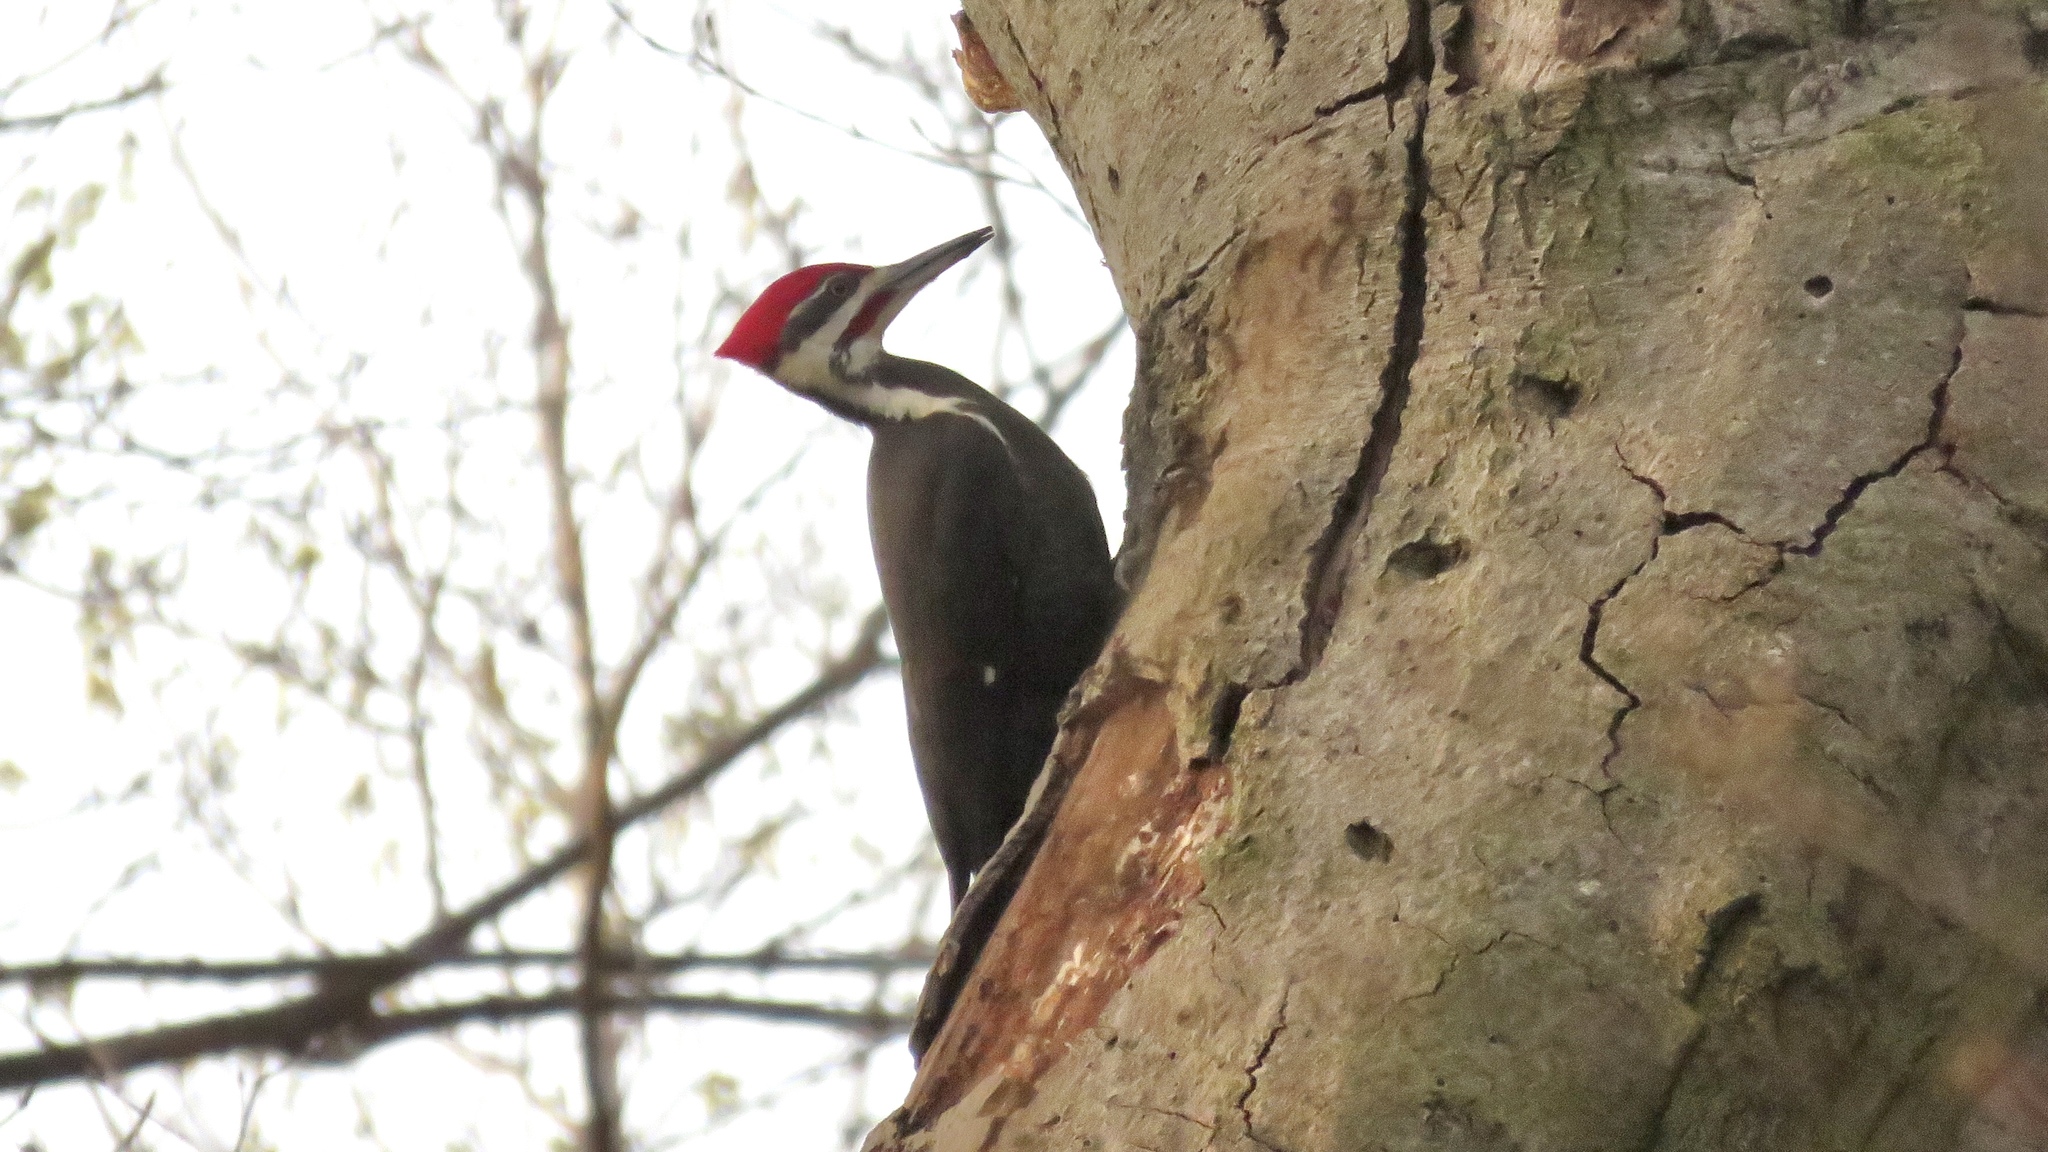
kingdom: Animalia
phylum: Chordata
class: Aves
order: Piciformes
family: Picidae
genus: Dryocopus
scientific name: Dryocopus pileatus
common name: Pileated woodpecker
